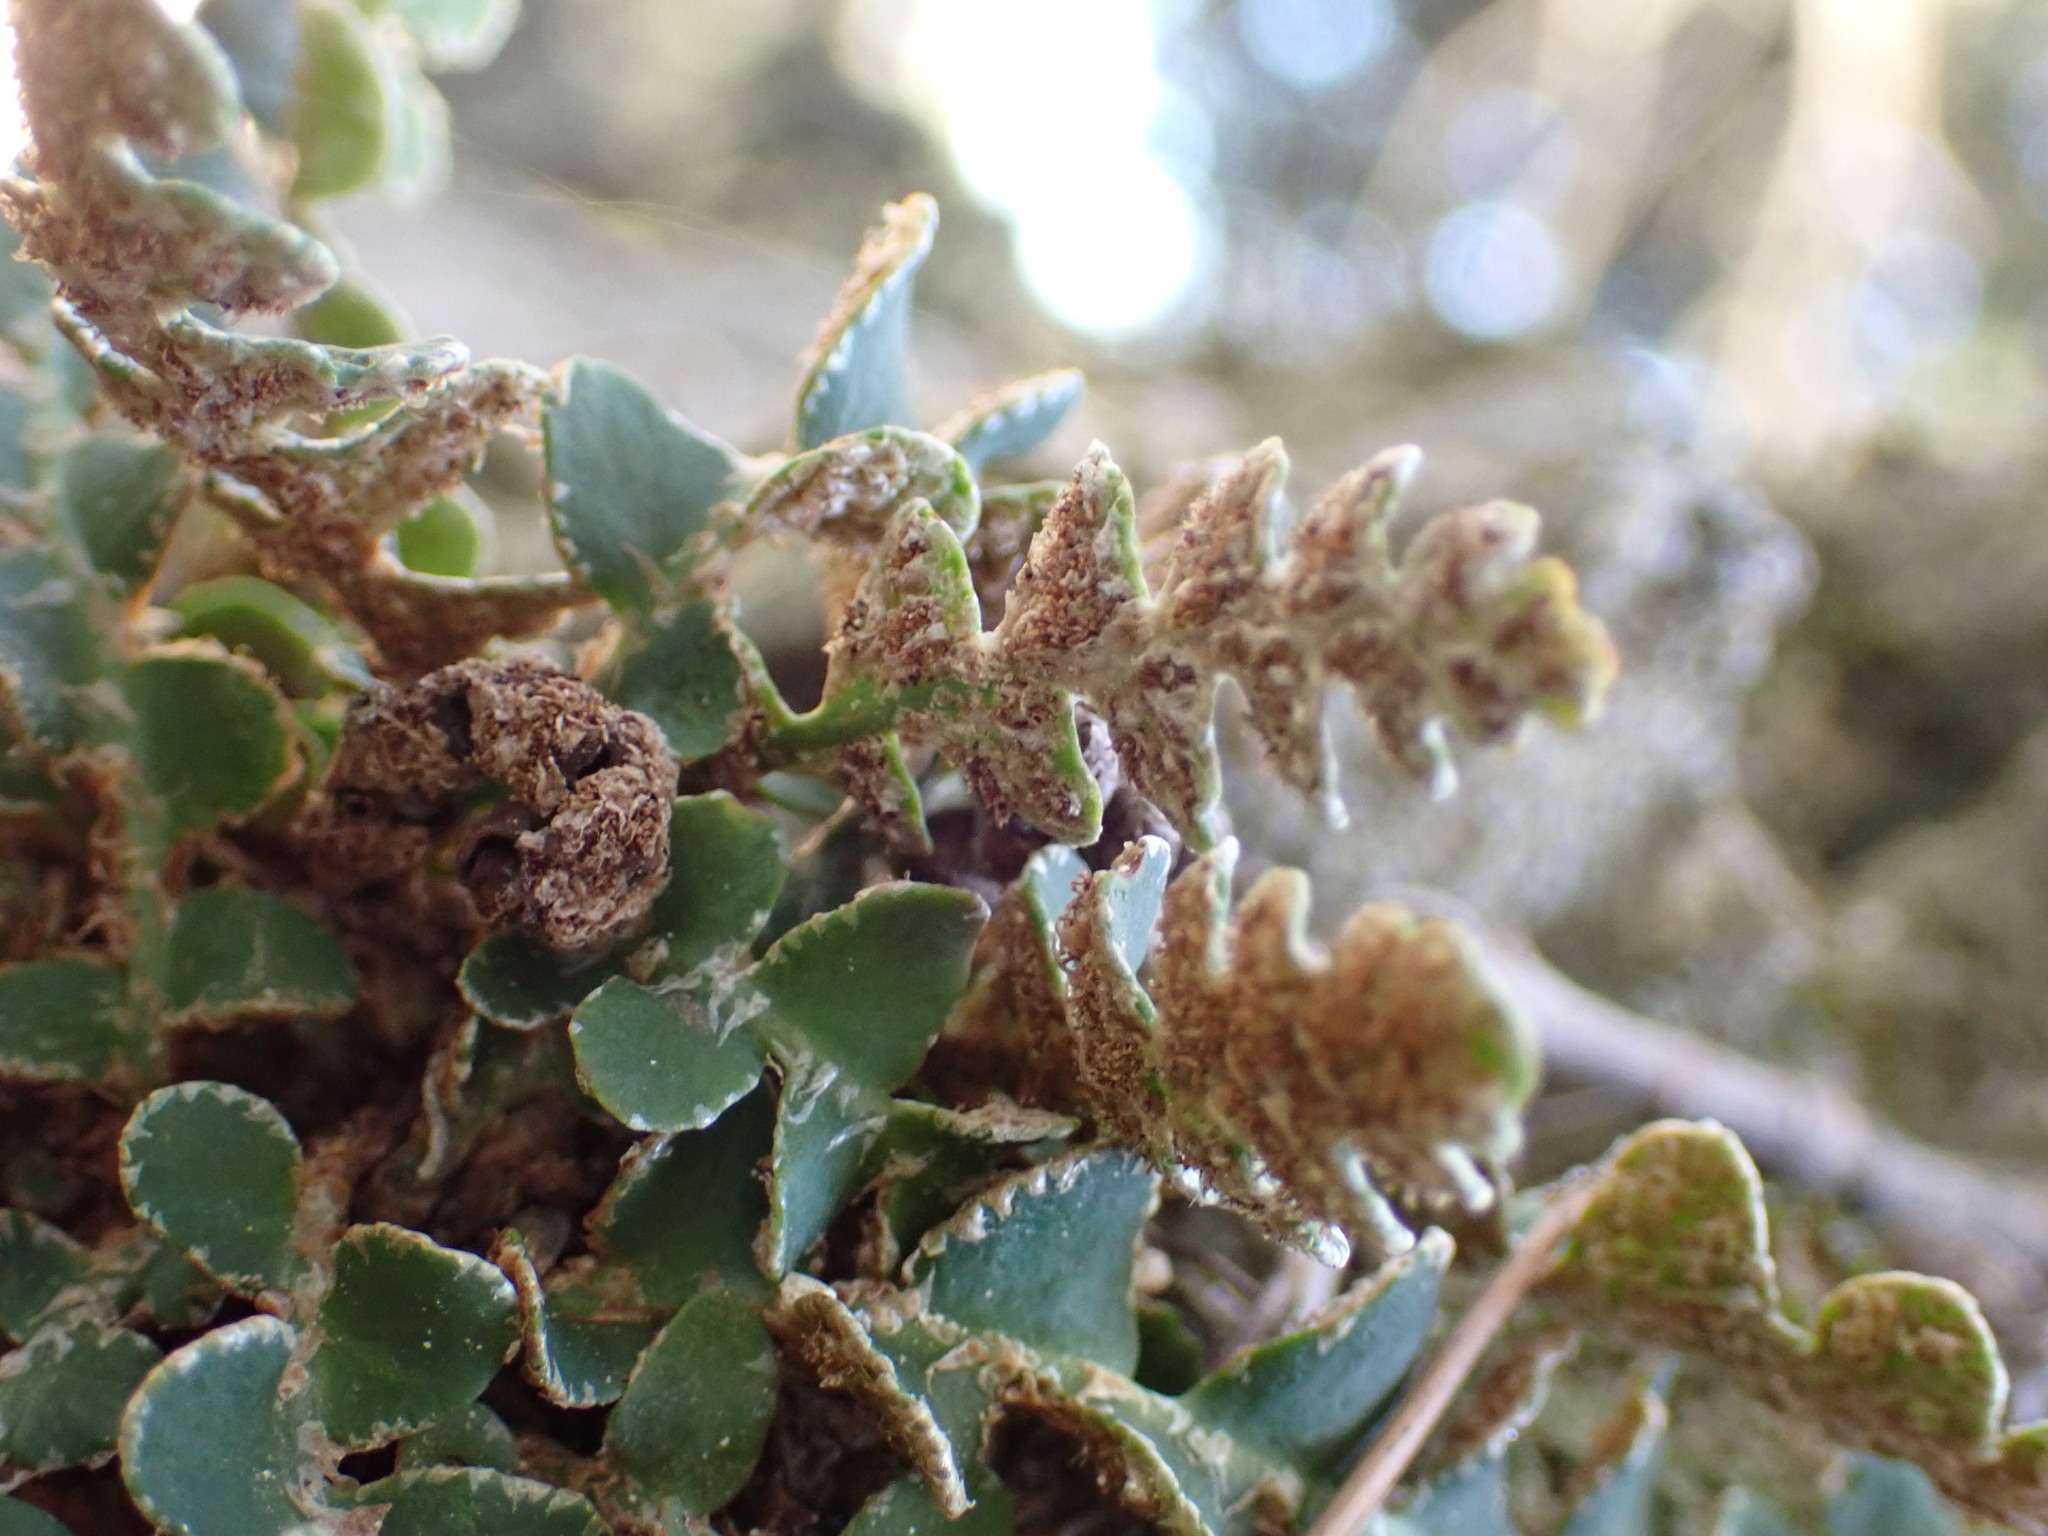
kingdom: Plantae
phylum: Tracheophyta
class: Polypodiopsida
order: Polypodiales
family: Aspleniaceae
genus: Asplenium
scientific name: Asplenium ceterach
